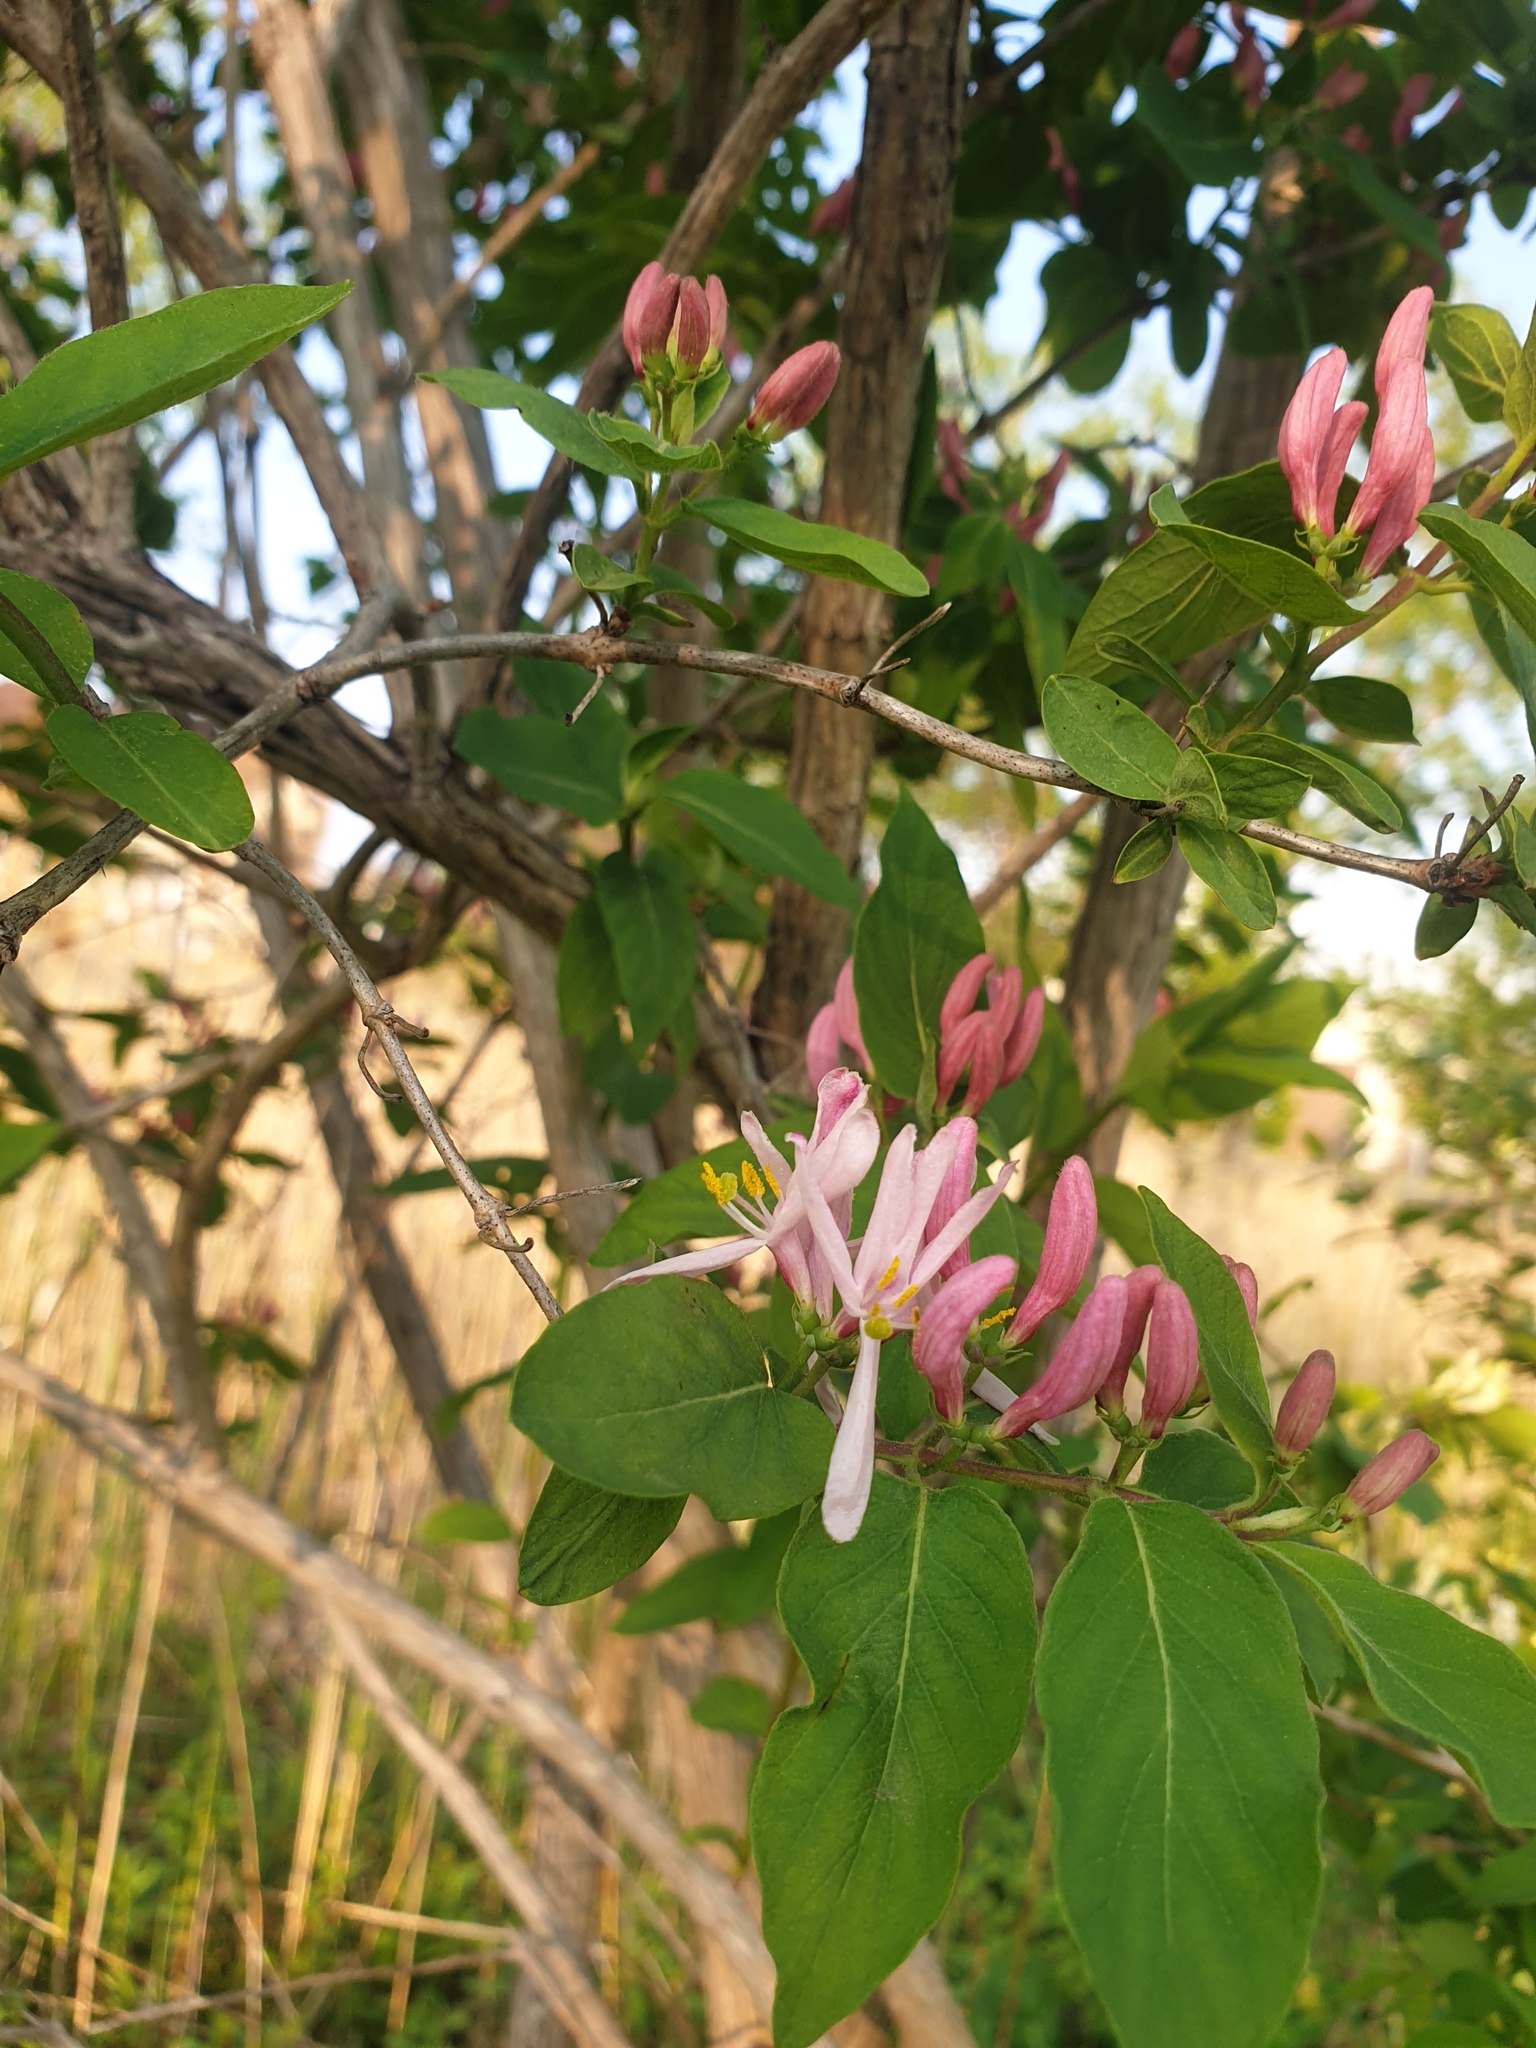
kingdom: Plantae
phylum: Tracheophyta
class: Magnoliopsida
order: Dipsacales
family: Caprifoliaceae
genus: Lonicera
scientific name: Lonicera bella
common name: Bell's honeysuckle
